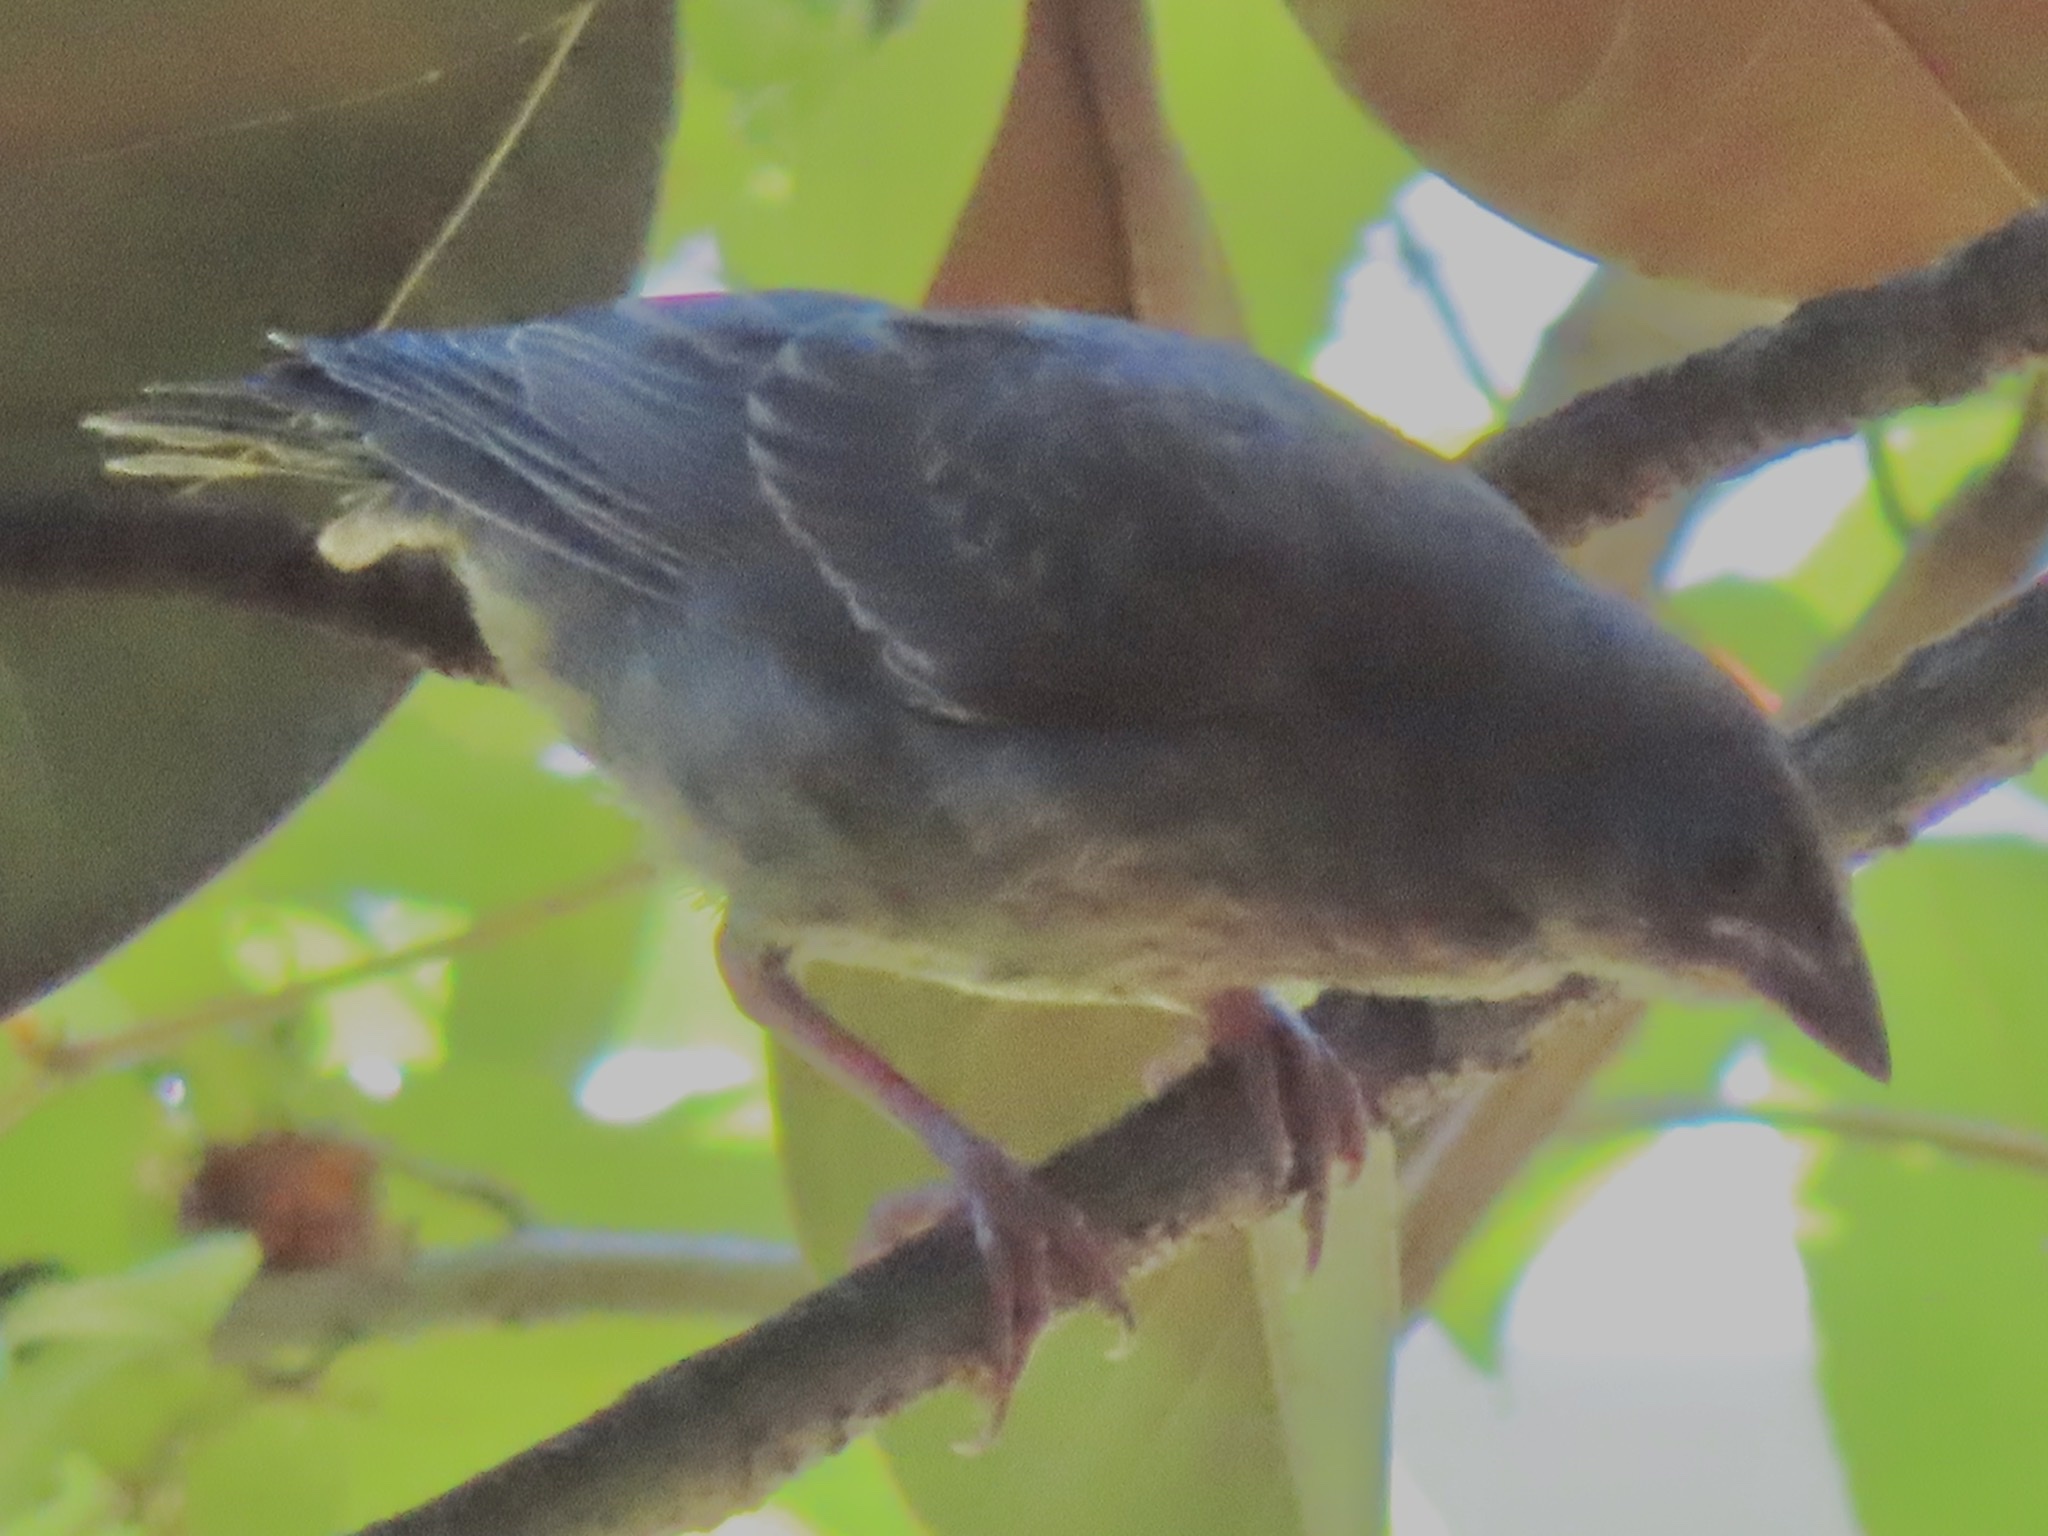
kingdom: Animalia
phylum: Chordata
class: Aves
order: Passeriformes
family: Icteridae
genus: Molothrus
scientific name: Molothrus ater
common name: Brown-headed cowbird
